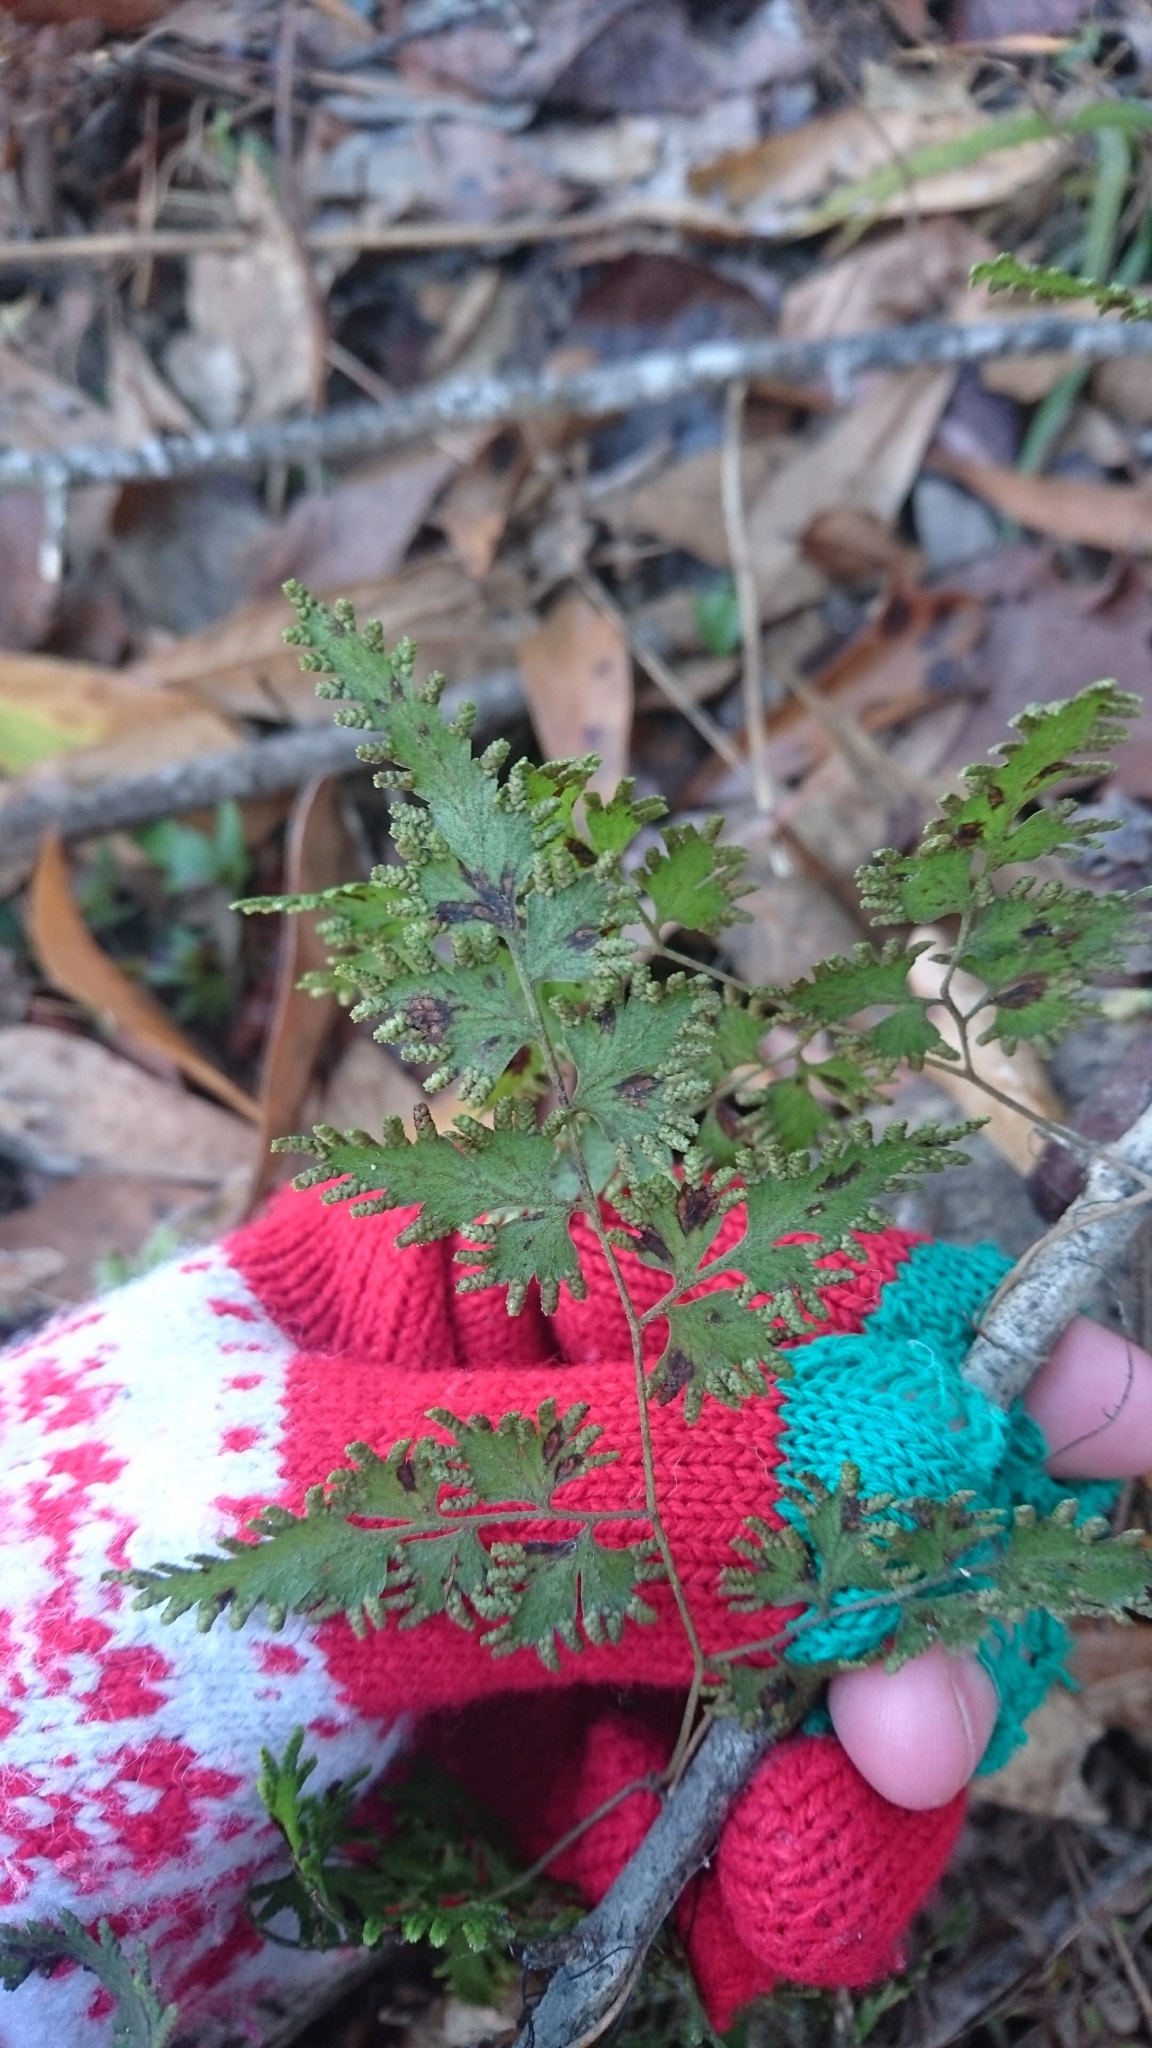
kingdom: Plantae
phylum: Tracheophyta
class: Polypodiopsida
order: Schizaeales
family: Lygodiaceae
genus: Lygodium
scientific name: Lygodium japonicum
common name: Japanese climbing fern
